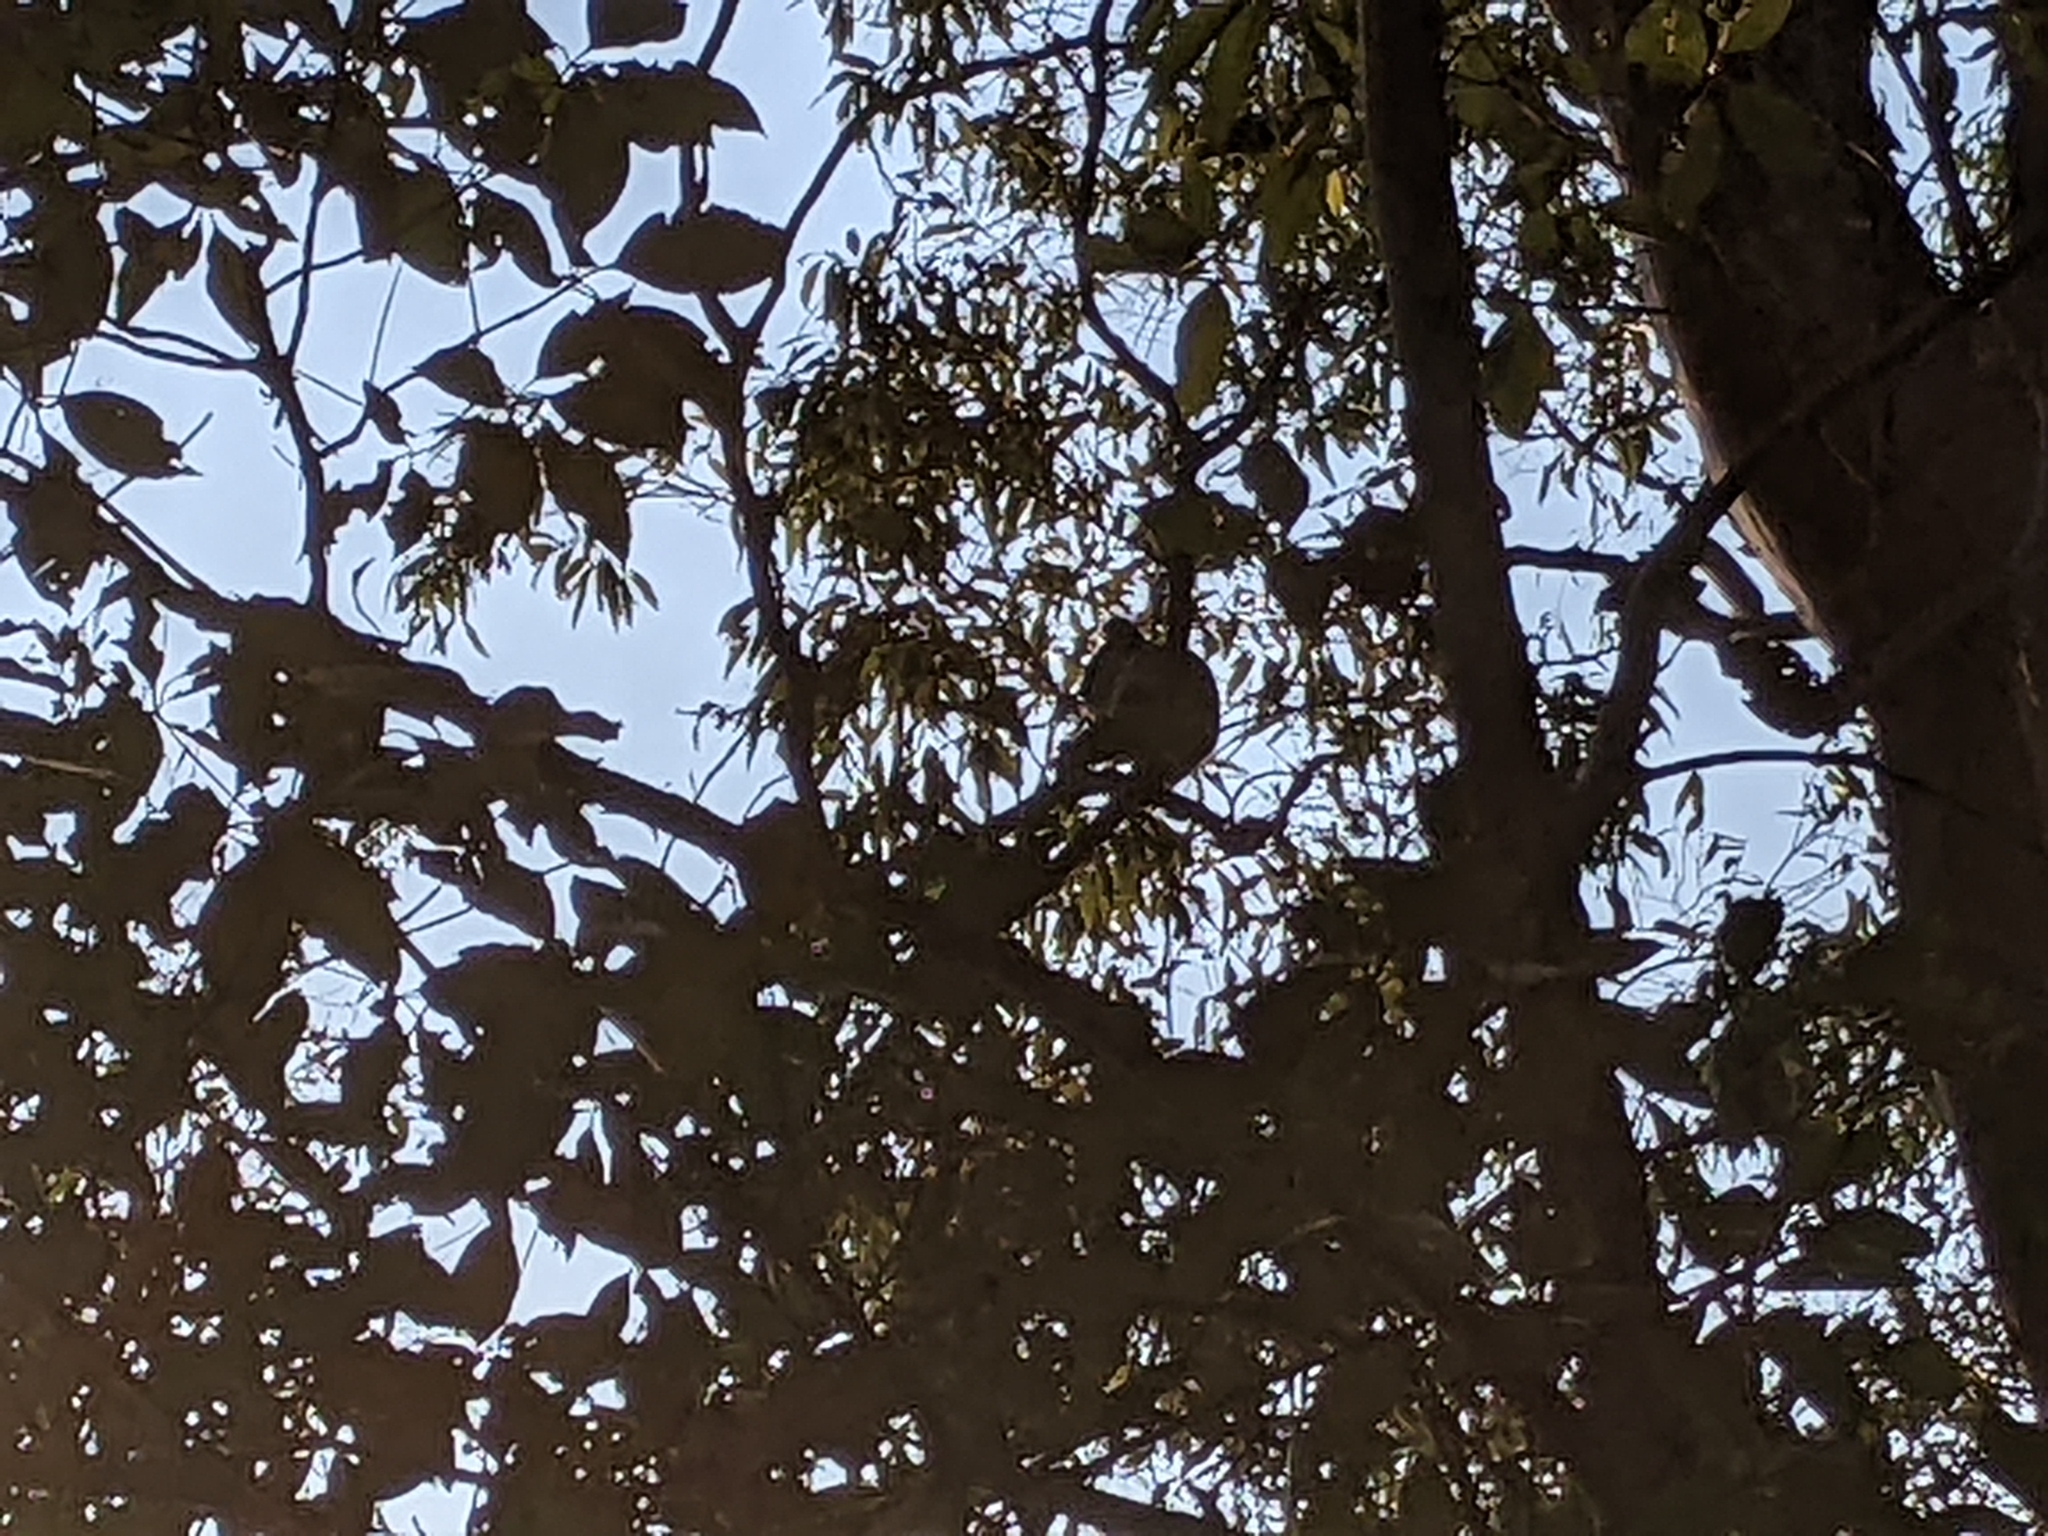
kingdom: Animalia
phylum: Chordata
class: Mammalia
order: Diprotodontia
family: Phascolarctidae
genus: Phascolarctos
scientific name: Phascolarctos cinereus
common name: Koala
